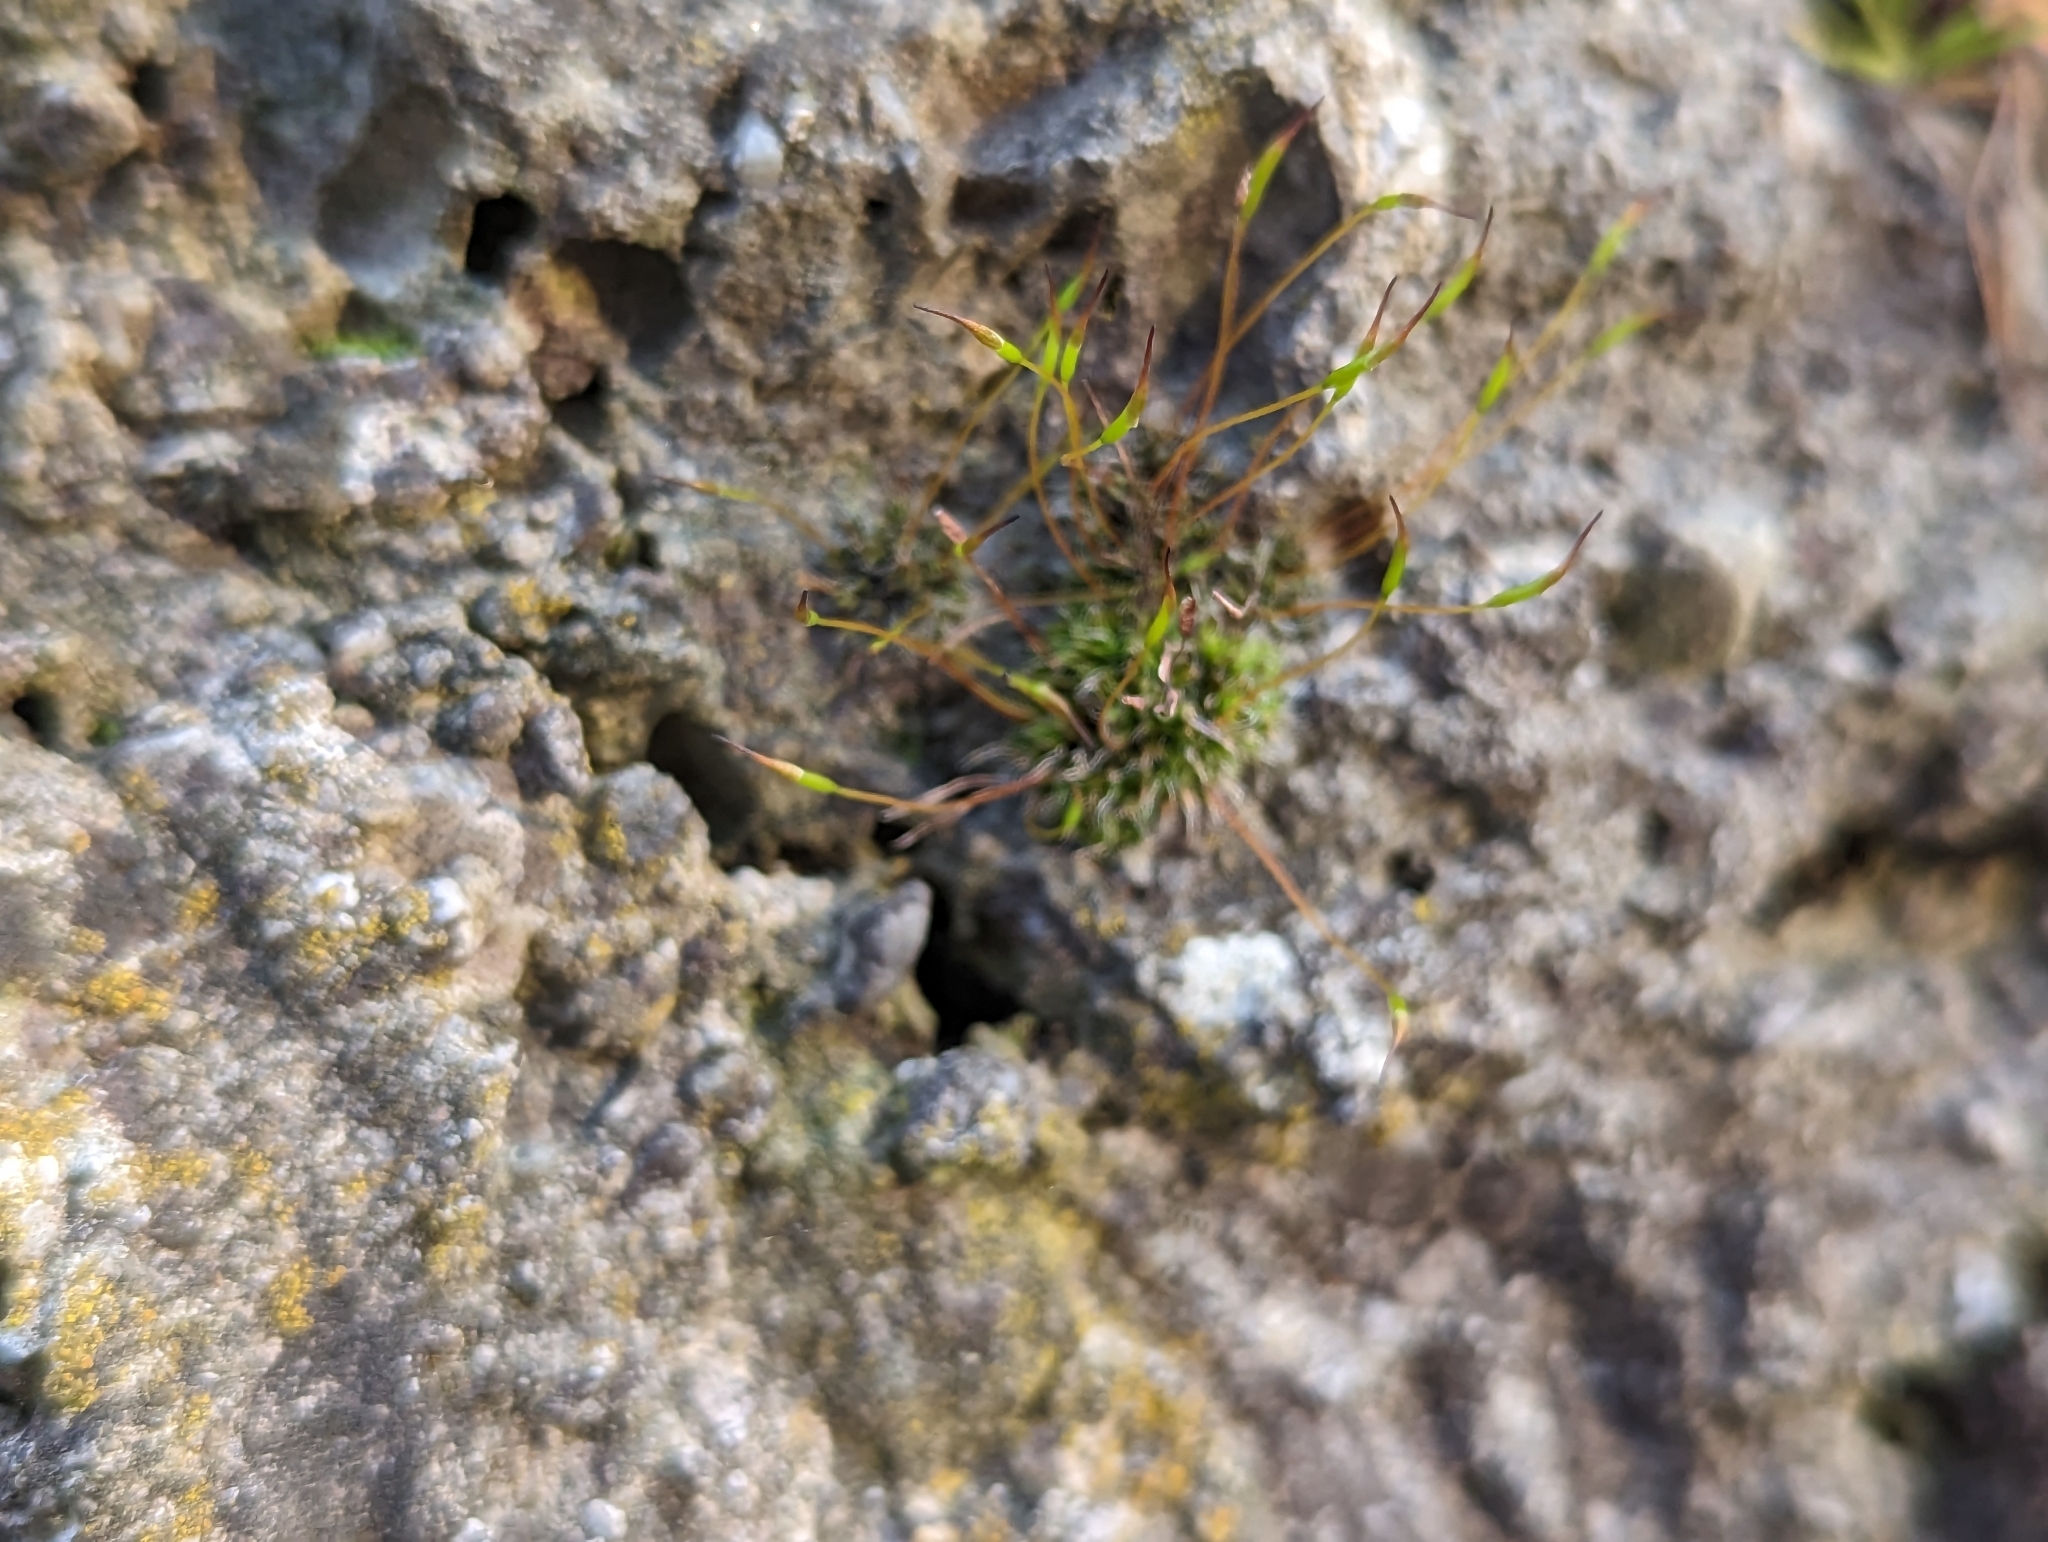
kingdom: Plantae
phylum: Bryophyta
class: Bryopsida
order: Pottiales
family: Pottiaceae
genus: Tortula
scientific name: Tortula muralis
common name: Wall screw-moss
